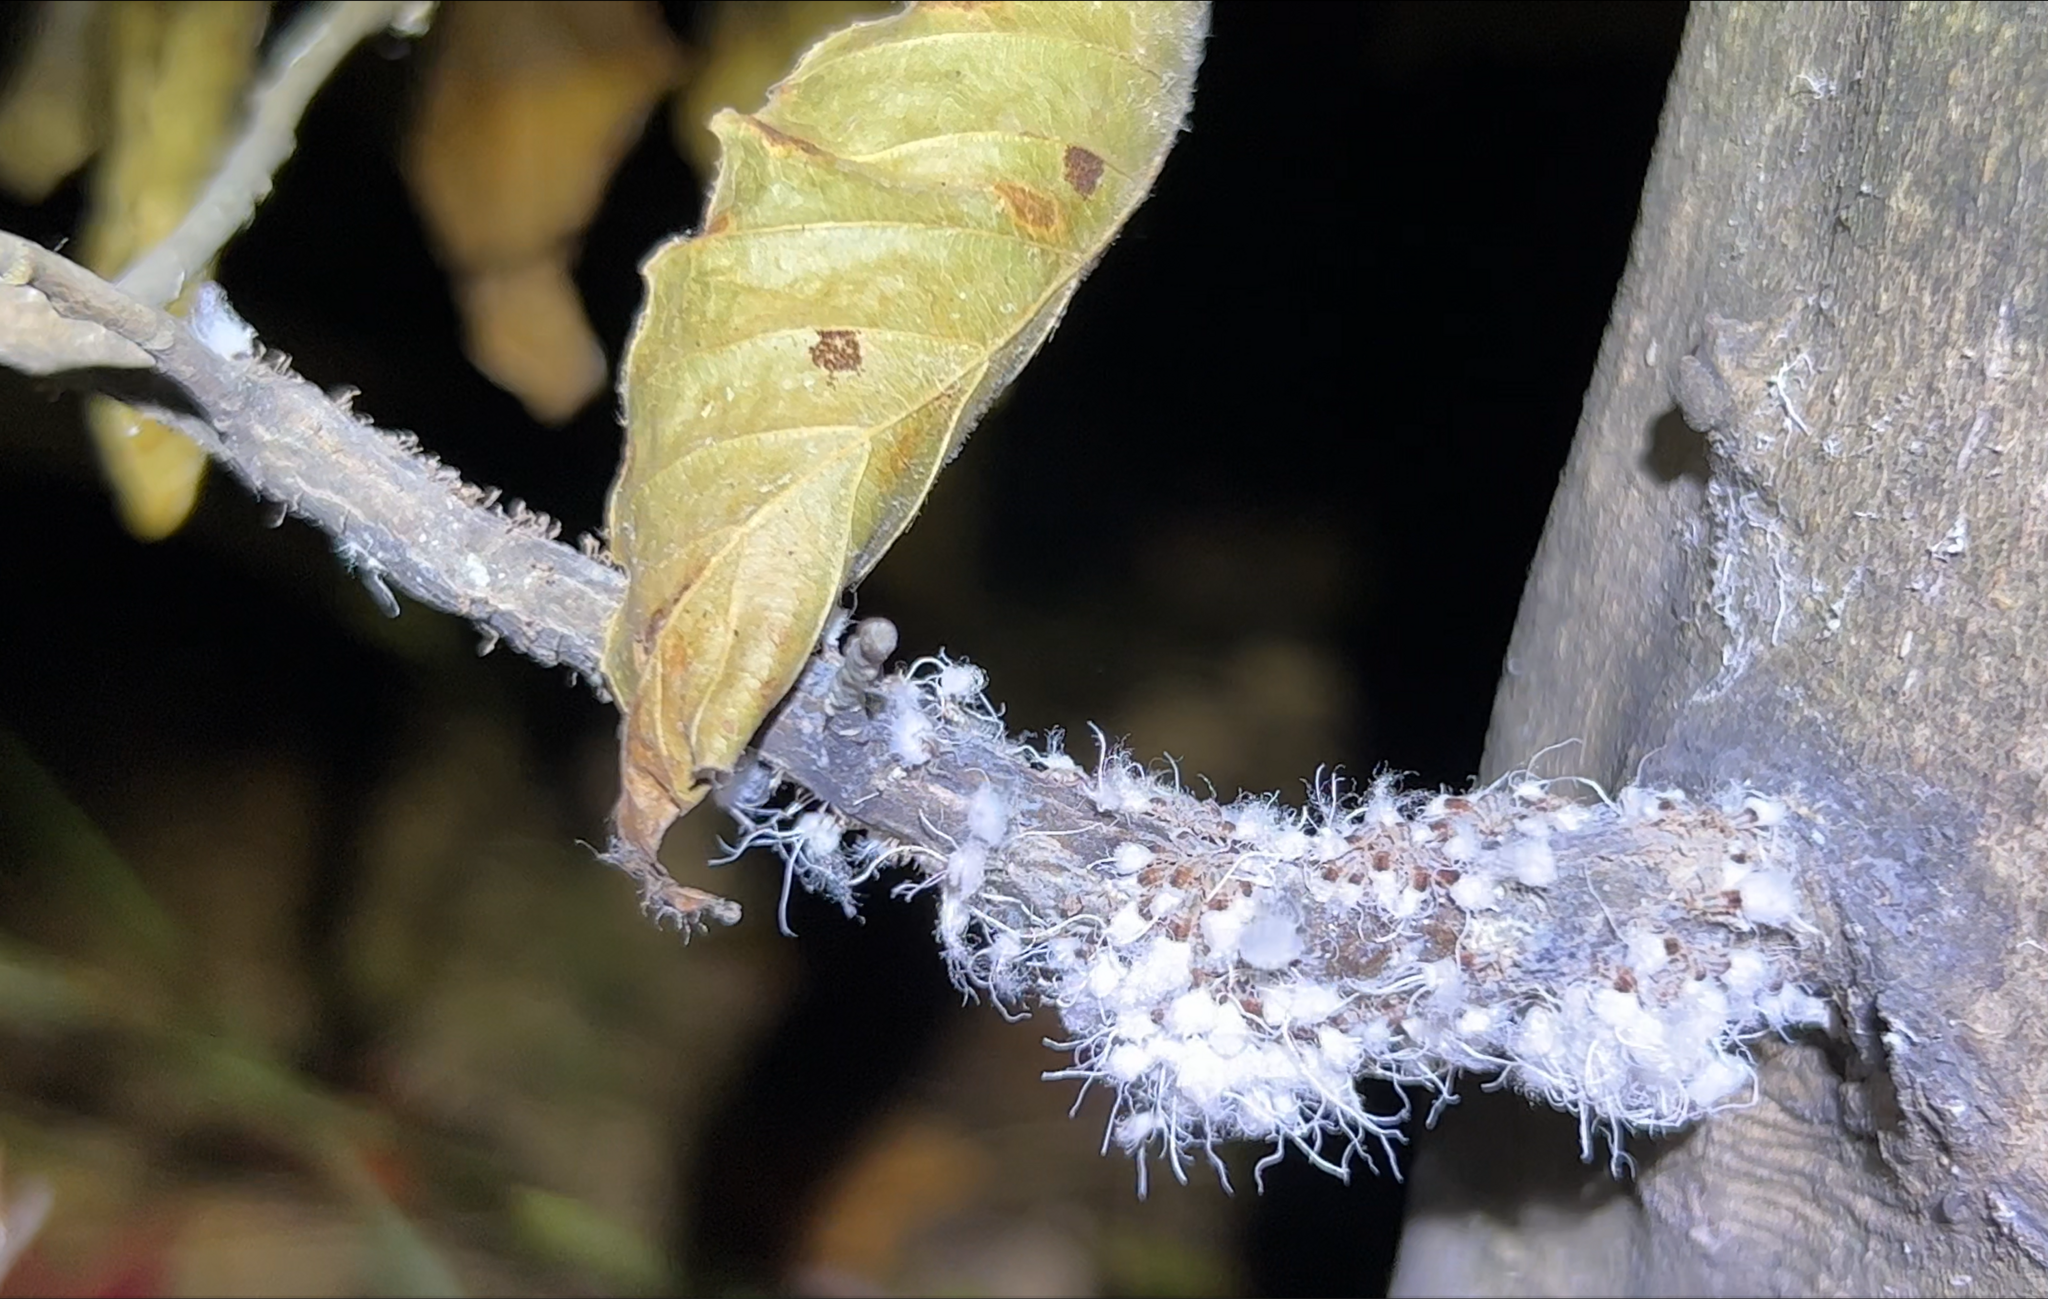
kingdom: Animalia
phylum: Arthropoda
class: Insecta
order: Hemiptera
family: Aphididae
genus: Grylloprociphilus
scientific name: Grylloprociphilus imbricator
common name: Beech blight aphid
